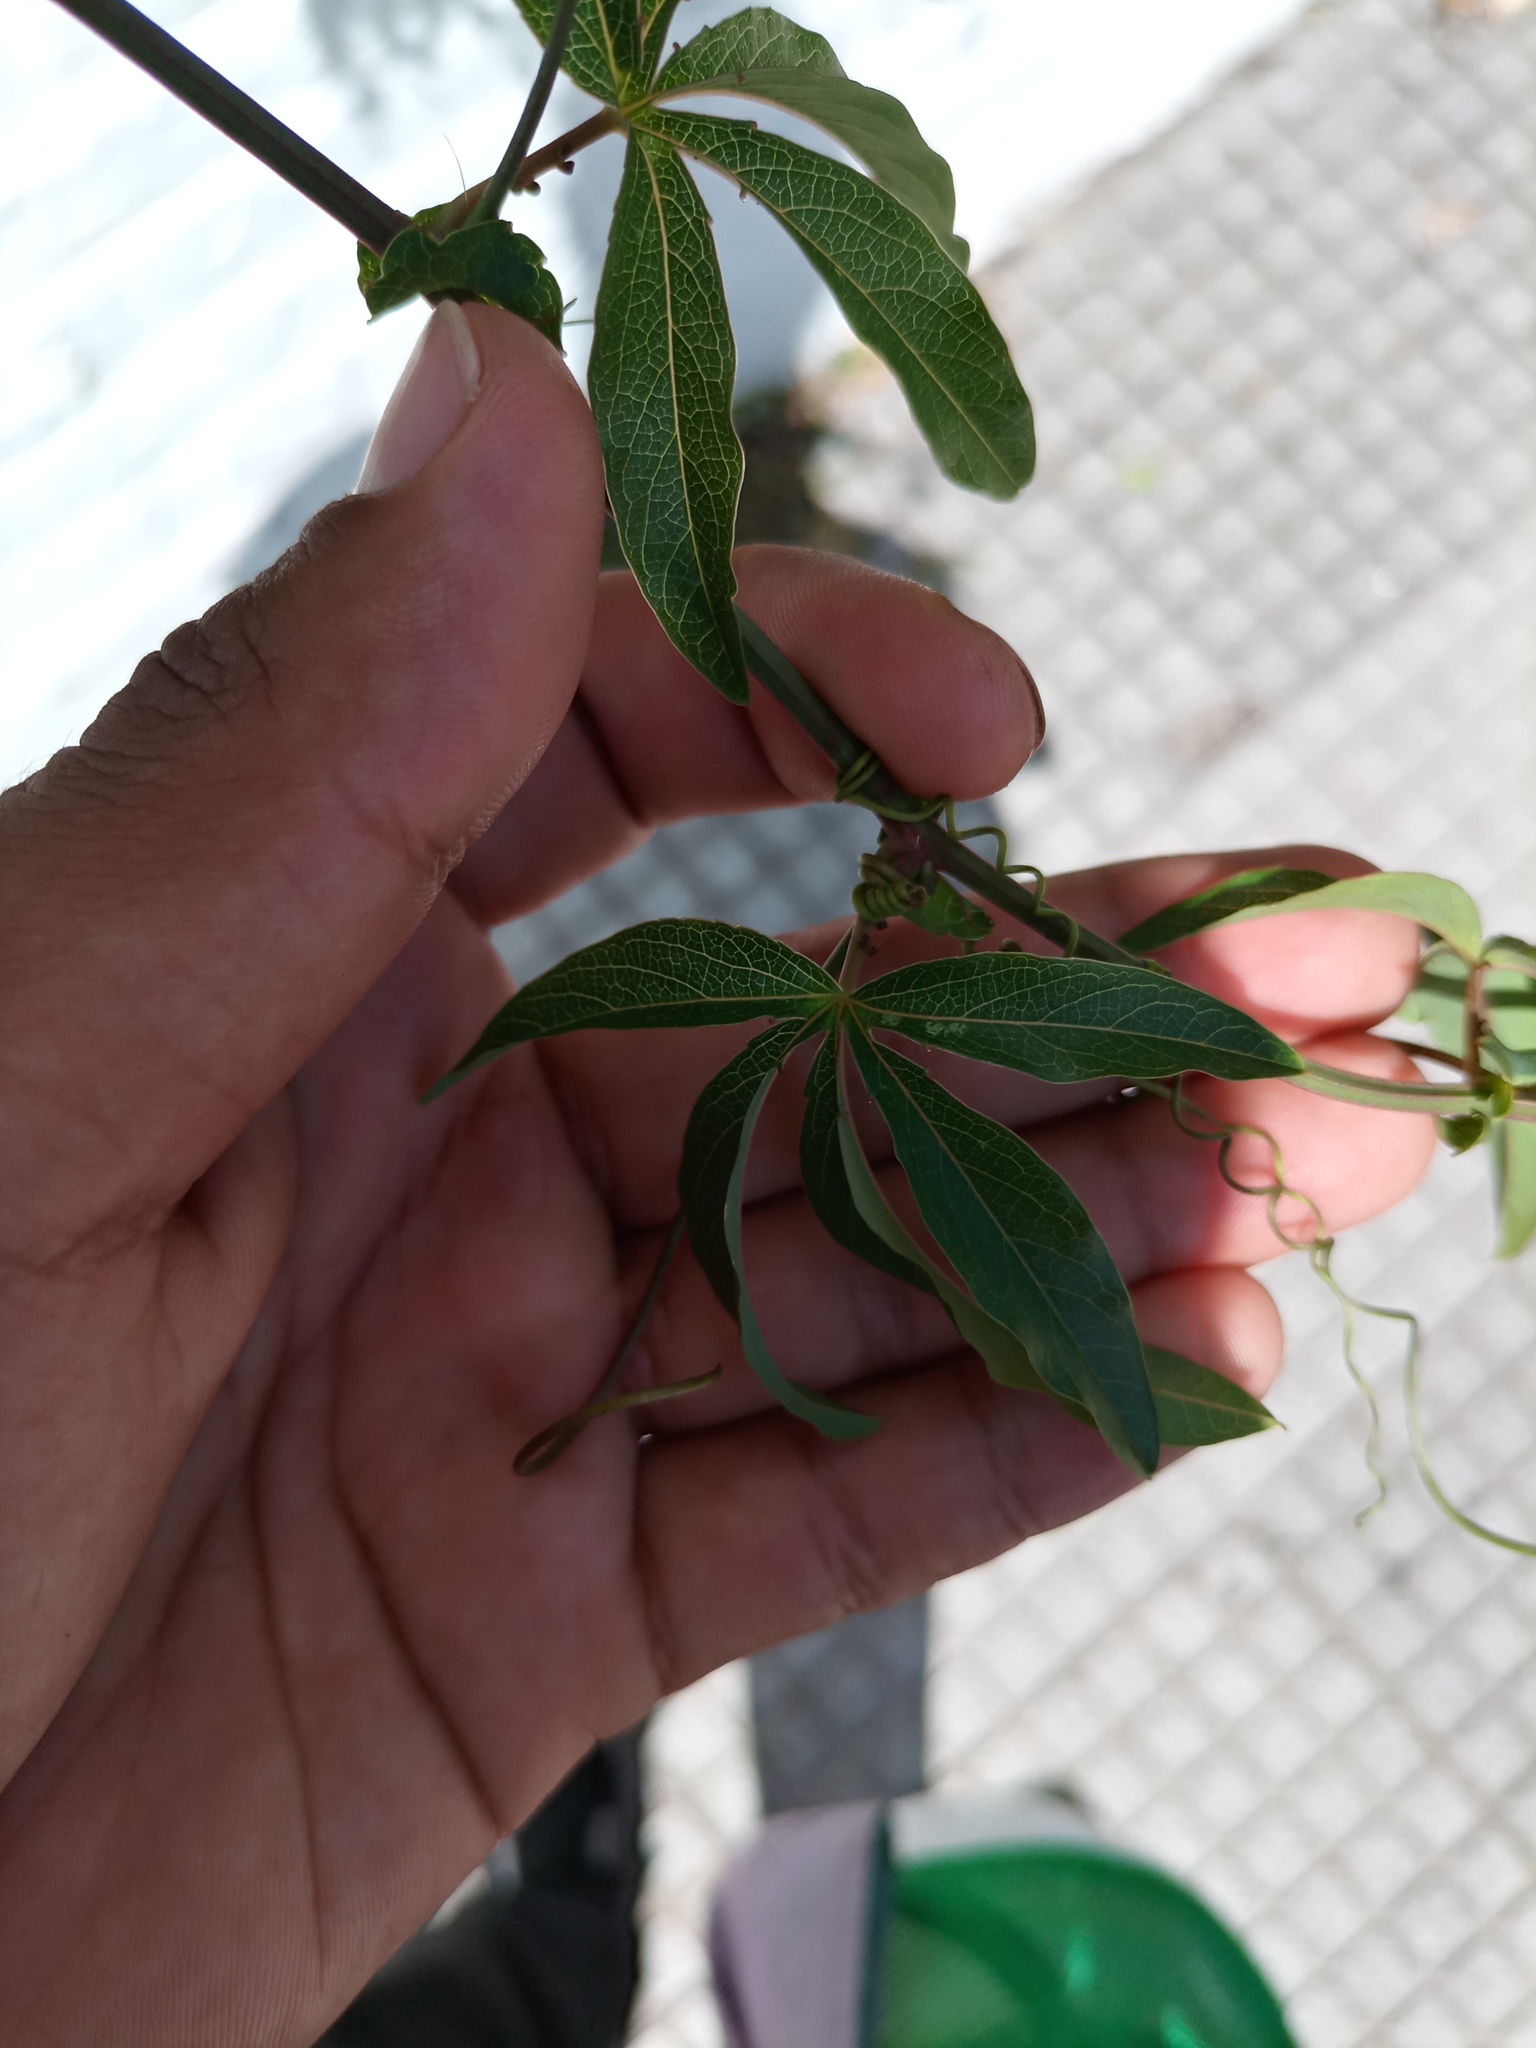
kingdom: Plantae
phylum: Tracheophyta
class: Magnoliopsida
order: Malpighiales
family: Passifloraceae
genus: Passiflora
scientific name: Passiflora caerulea
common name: Blue passionflower
